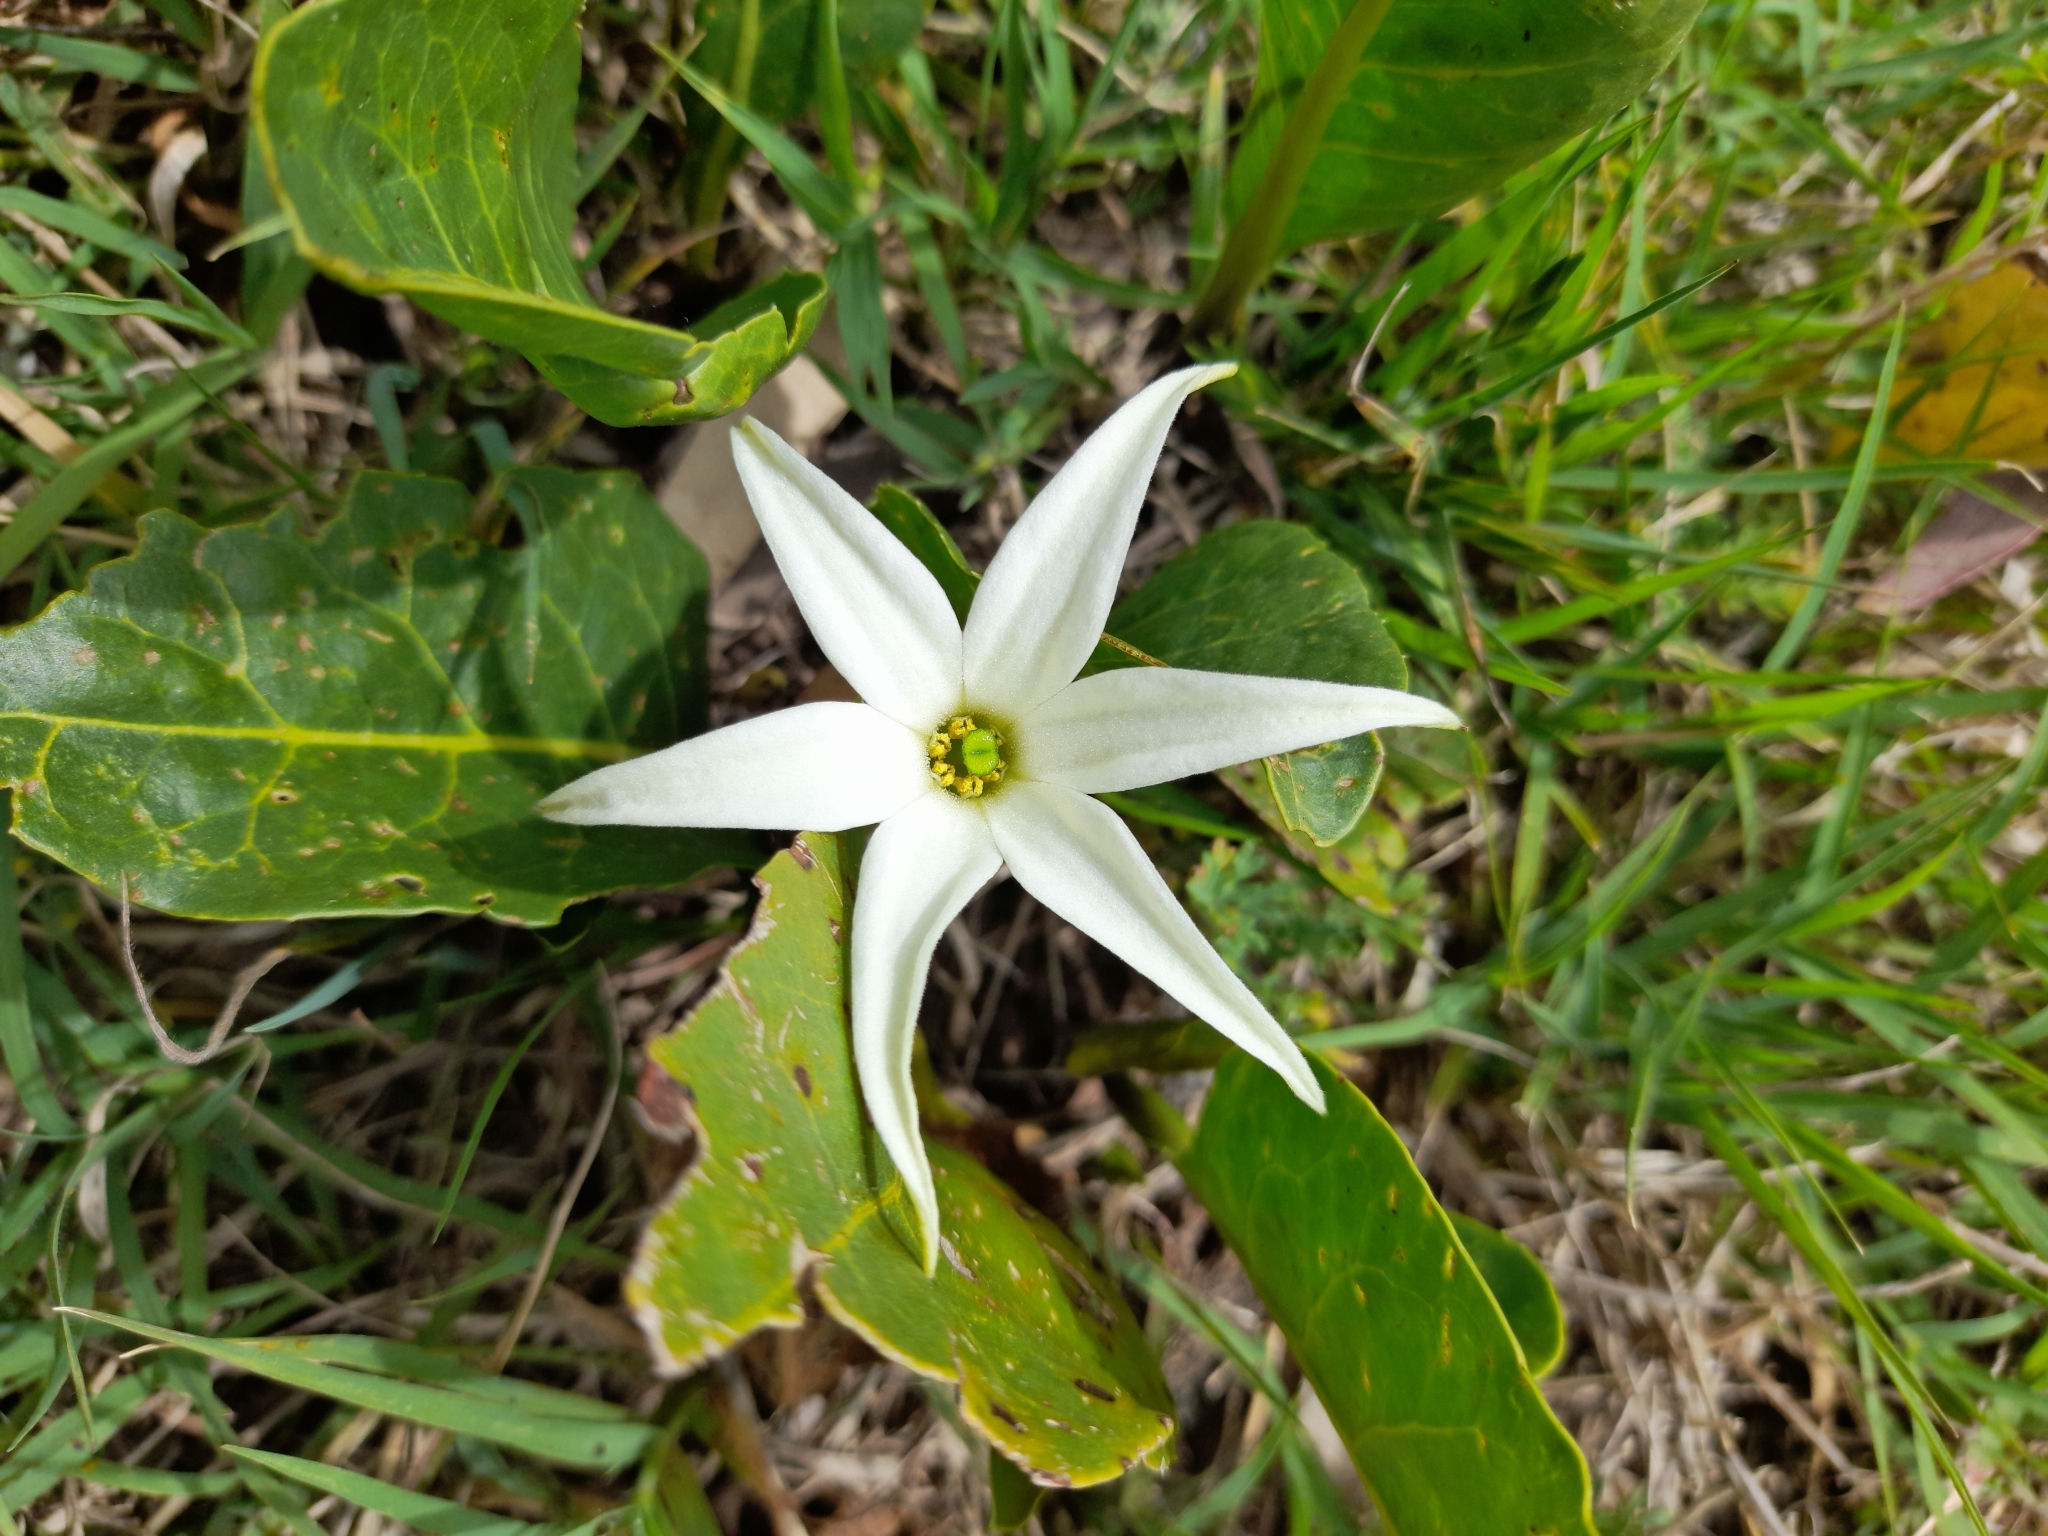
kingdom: Plantae
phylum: Tracheophyta
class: Magnoliopsida
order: Solanales
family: Solanaceae
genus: Jaborosa
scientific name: Jaborosa integrifolia
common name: Springblossom
